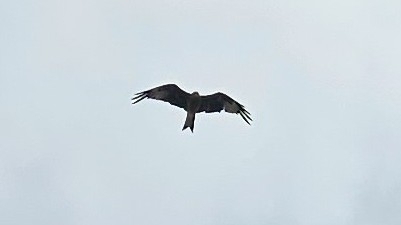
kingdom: Animalia
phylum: Chordata
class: Aves
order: Accipitriformes
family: Accipitridae
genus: Milvus
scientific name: Milvus milvus
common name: Red kite
